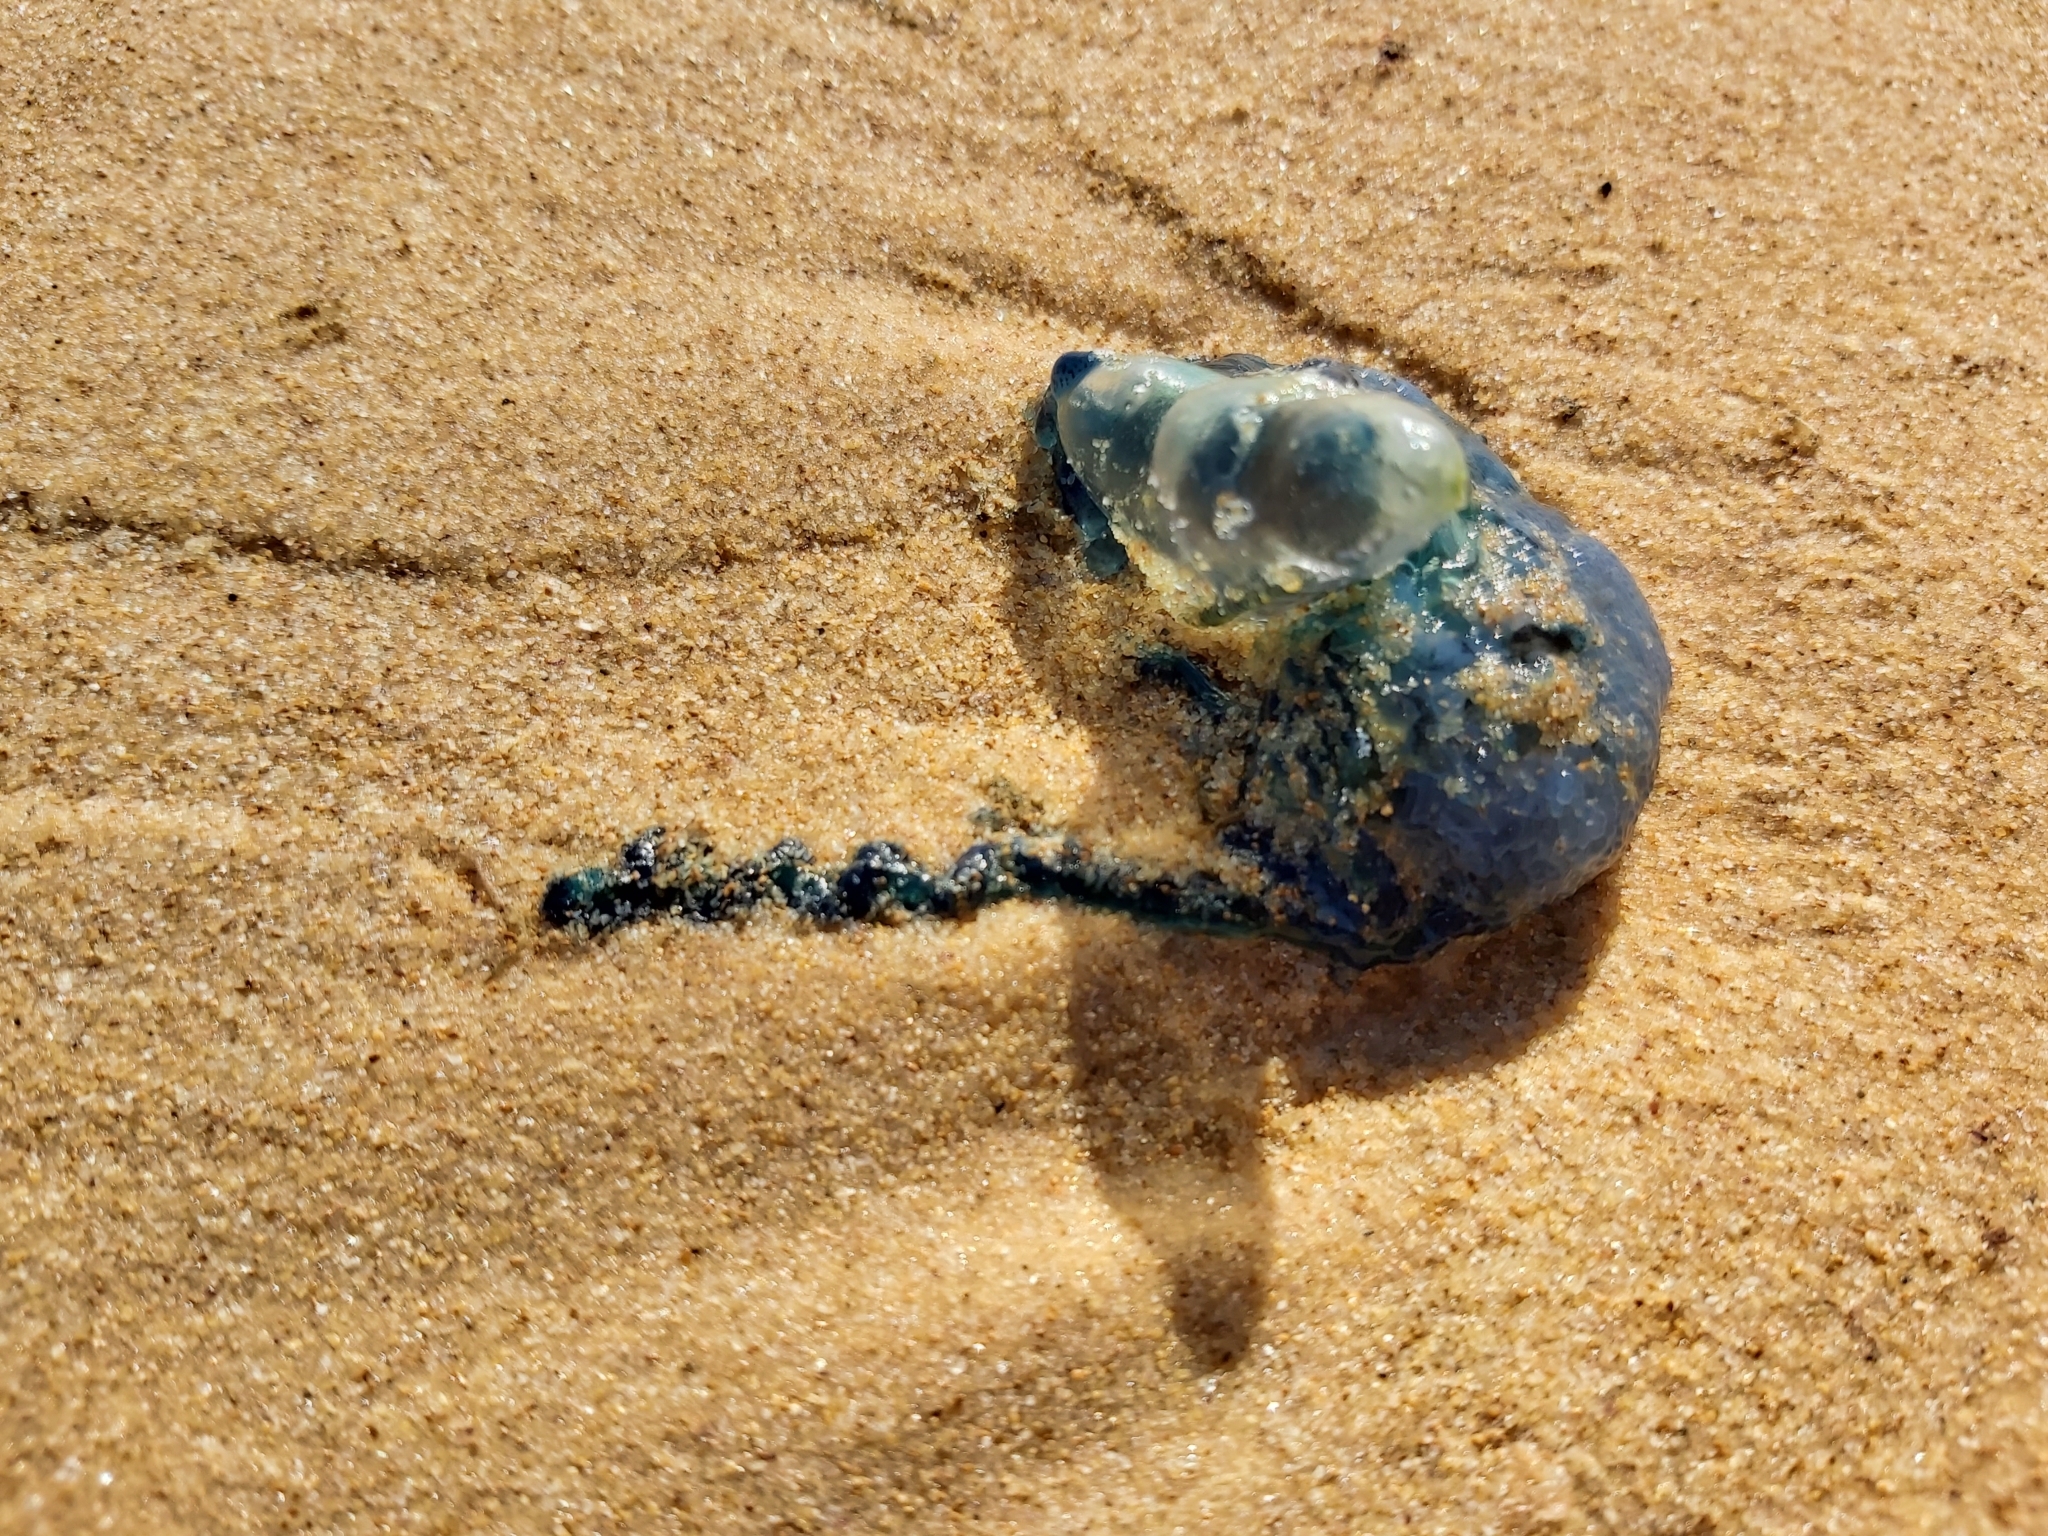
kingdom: Animalia
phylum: Cnidaria
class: Hydrozoa
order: Siphonophorae
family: Physaliidae
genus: Physalia
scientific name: Physalia physalis
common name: Portuguese man-of-war
